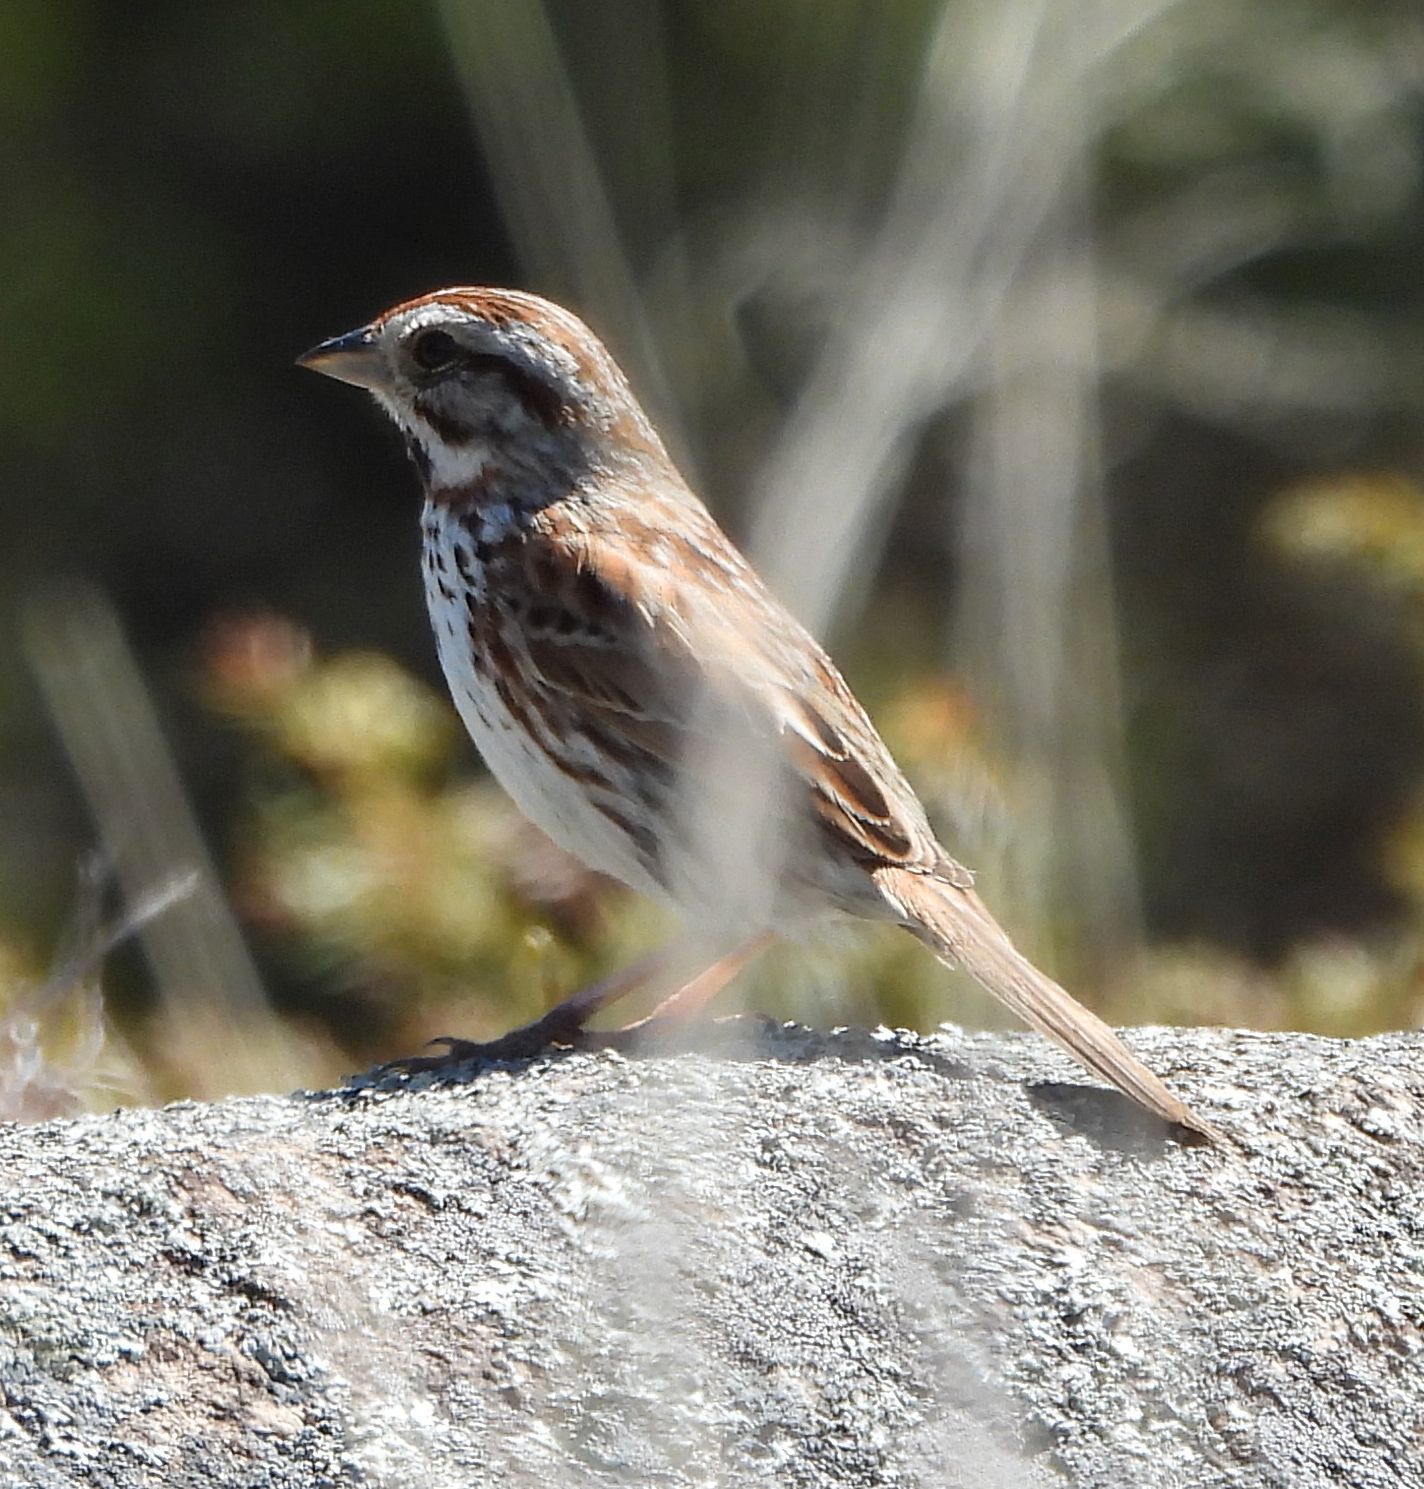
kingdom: Animalia
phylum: Chordata
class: Aves
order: Passeriformes
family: Passerellidae
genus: Melospiza
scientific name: Melospiza melodia
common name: Song sparrow
